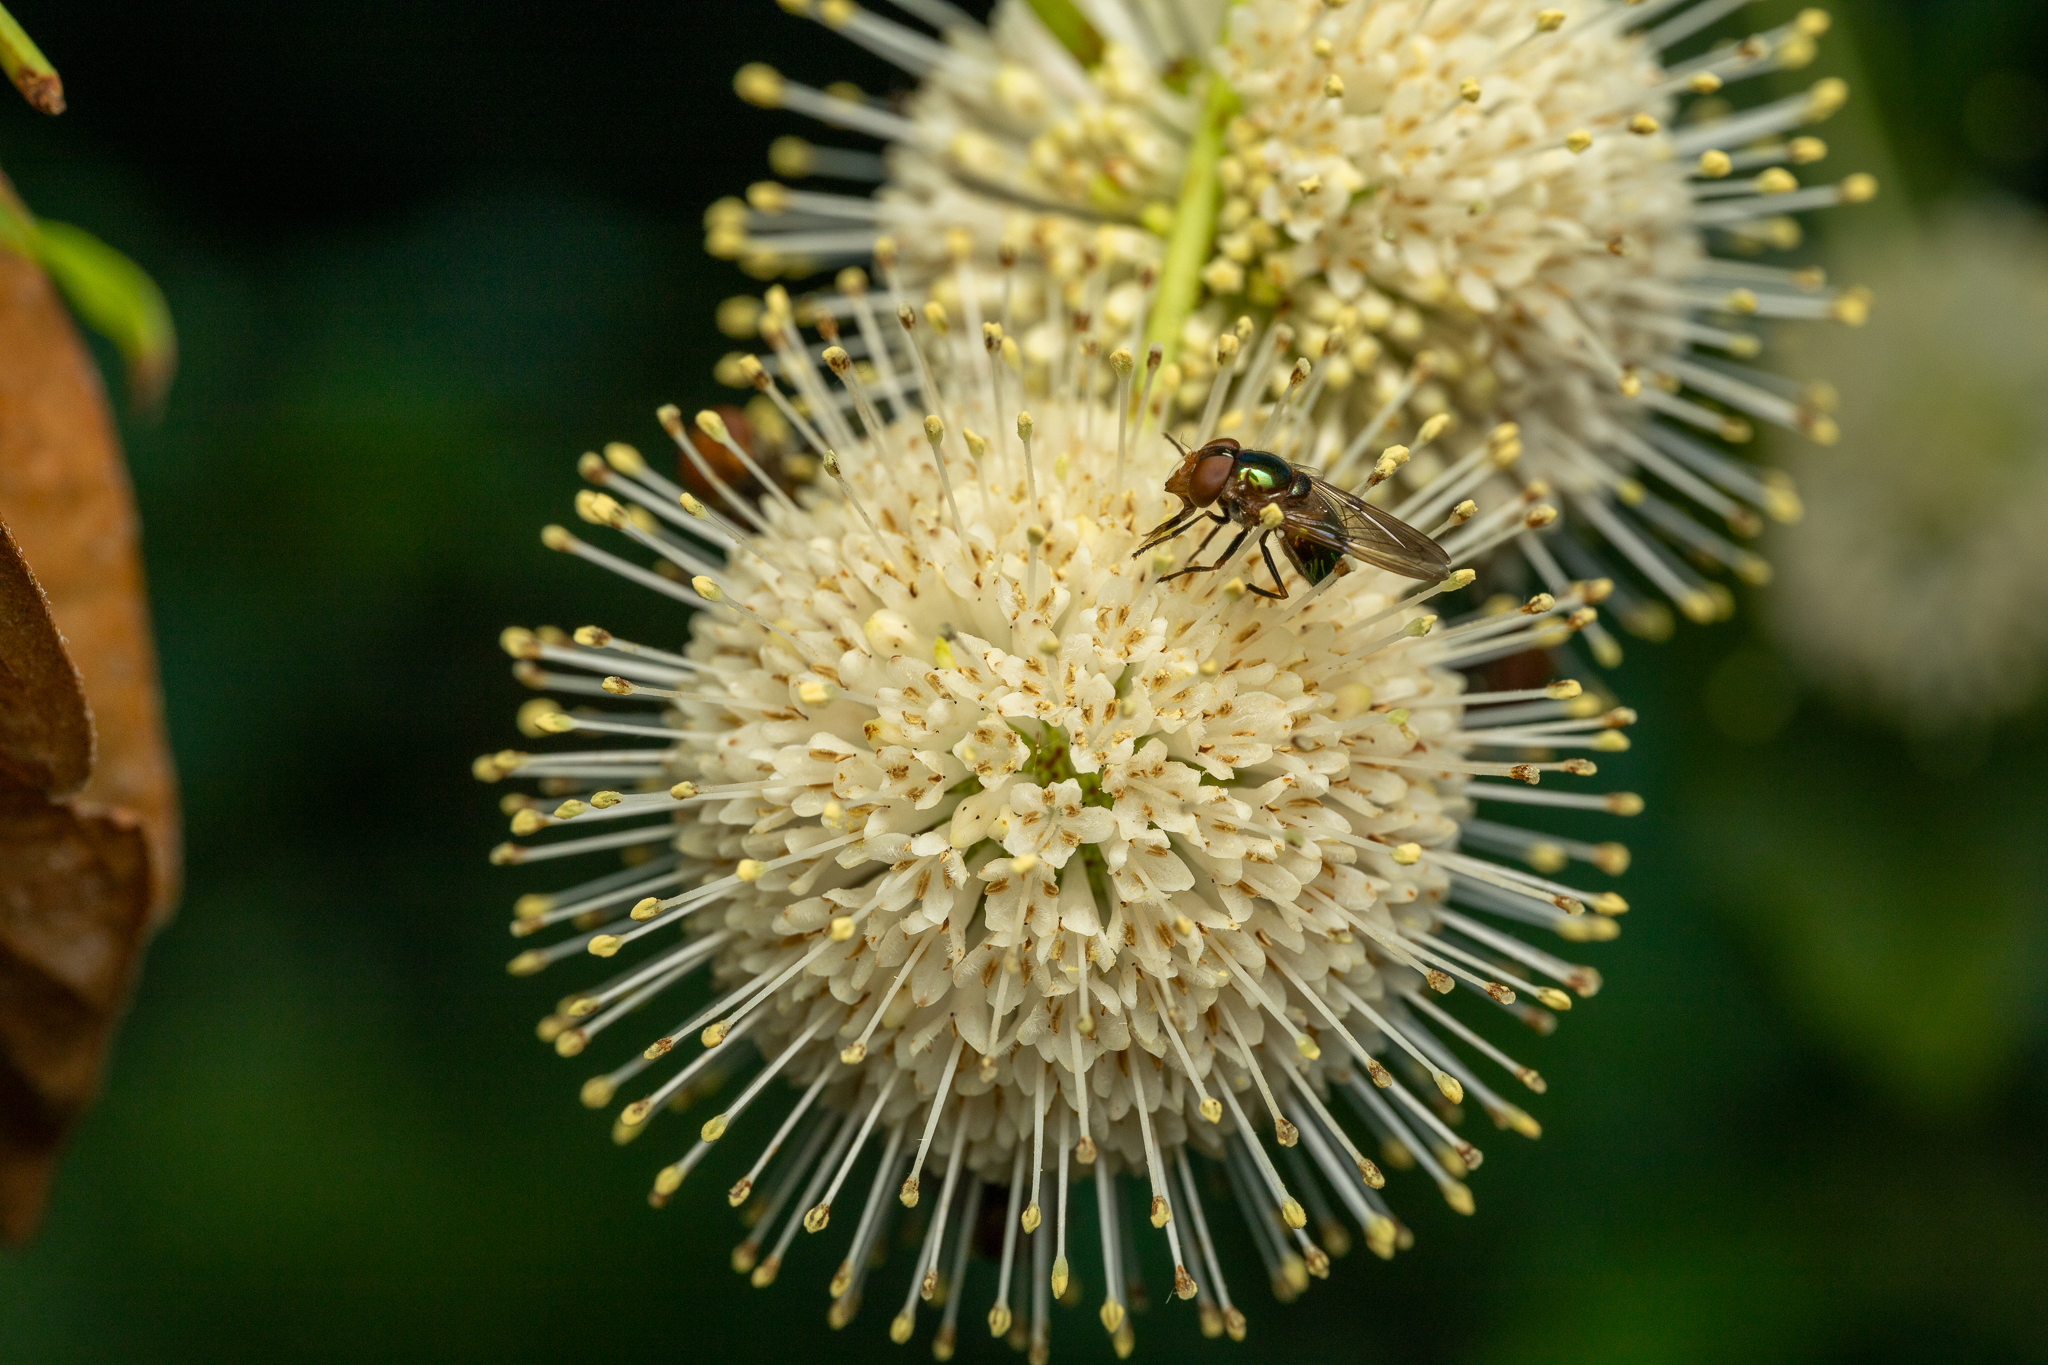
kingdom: Animalia
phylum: Arthropoda
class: Insecta
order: Diptera
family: Syrphidae
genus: Copestylum
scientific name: Copestylum vesicularium
